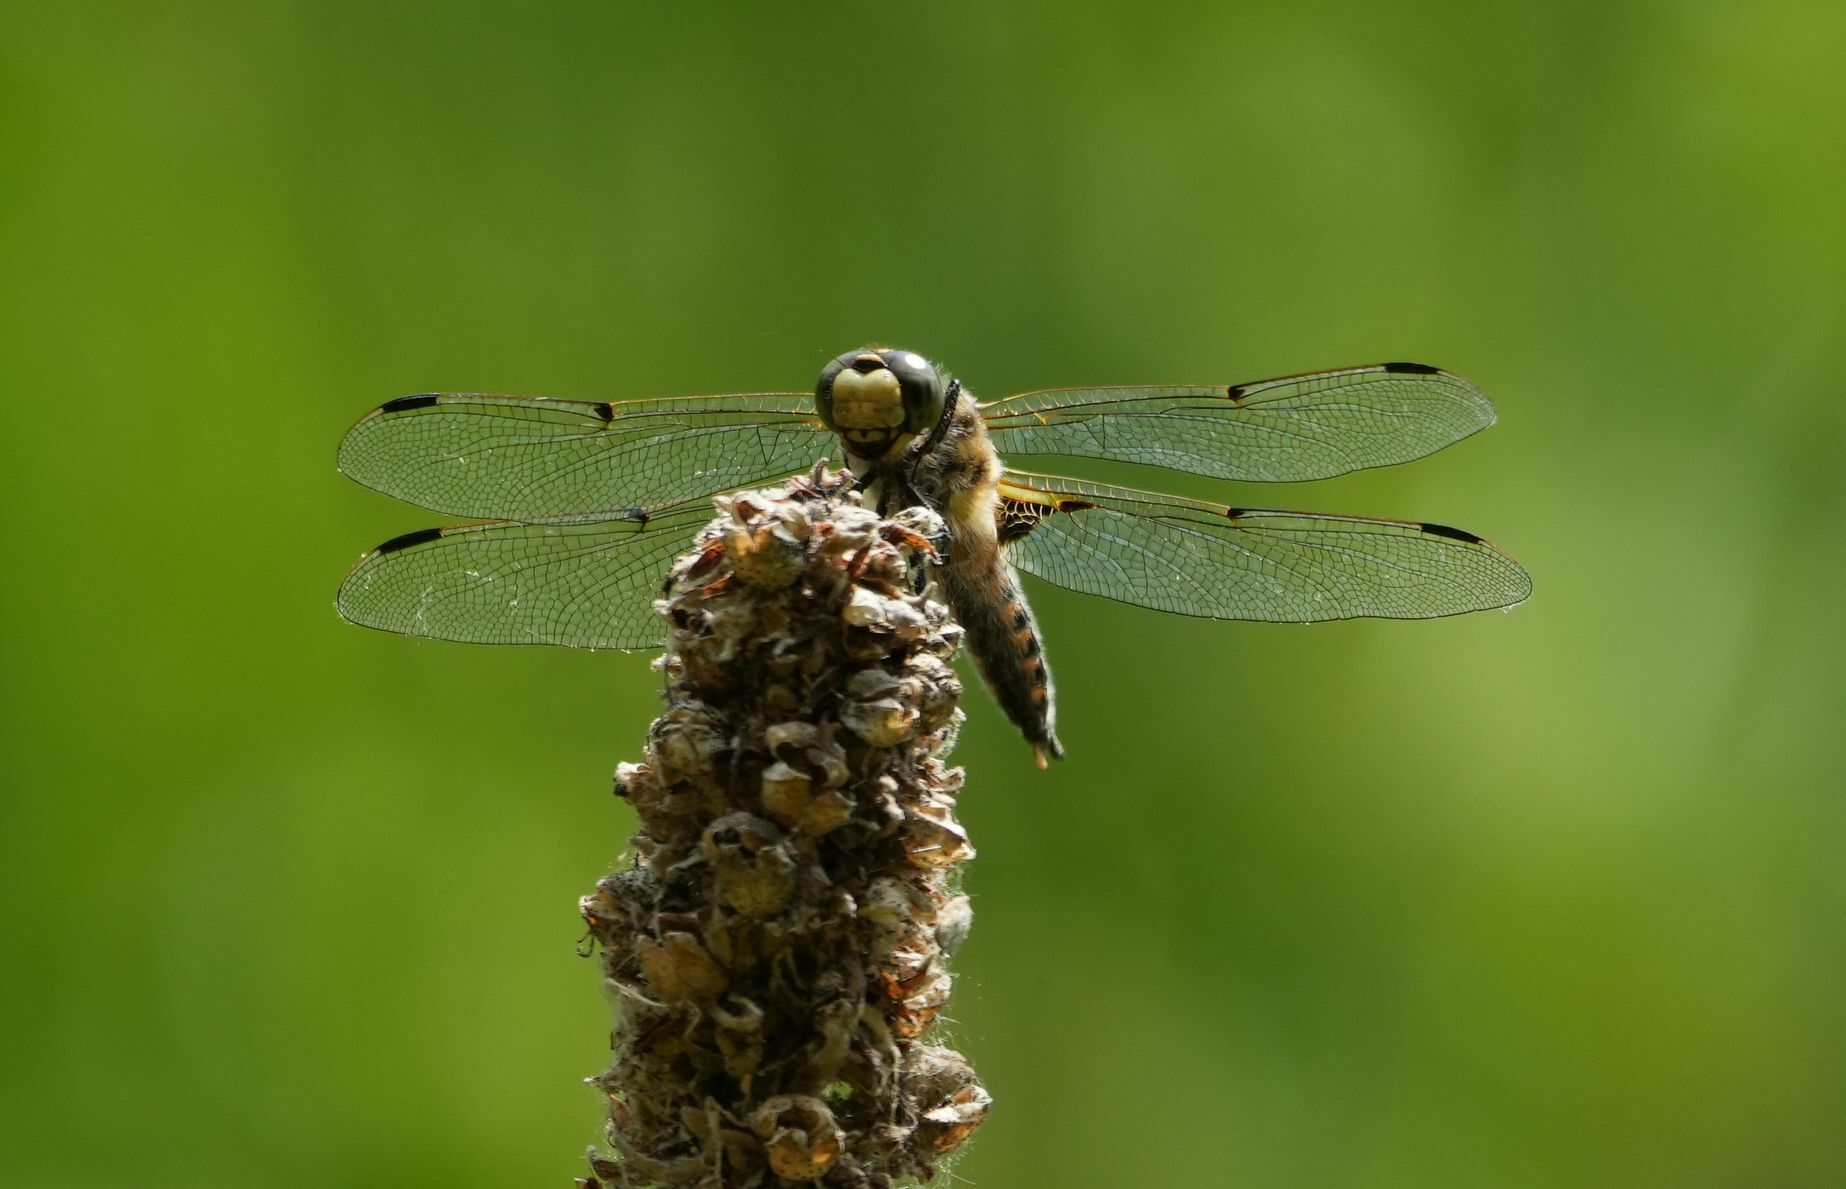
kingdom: Animalia
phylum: Arthropoda
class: Insecta
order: Odonata
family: Libellulidae
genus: Libellula
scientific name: Libellula quadrimaculata
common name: Four-spotted chaser
